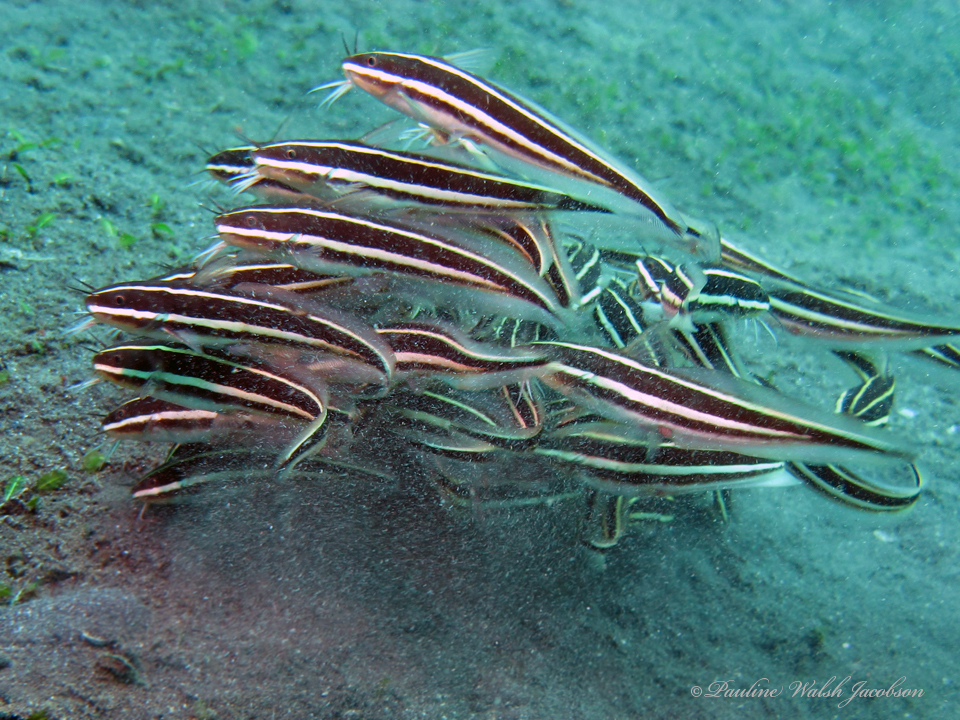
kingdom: Animalia
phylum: Chordata
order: Siluriformes
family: Plotosidae
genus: Plotosus
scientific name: Plotosus lineatus
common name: Striped eel catfish
